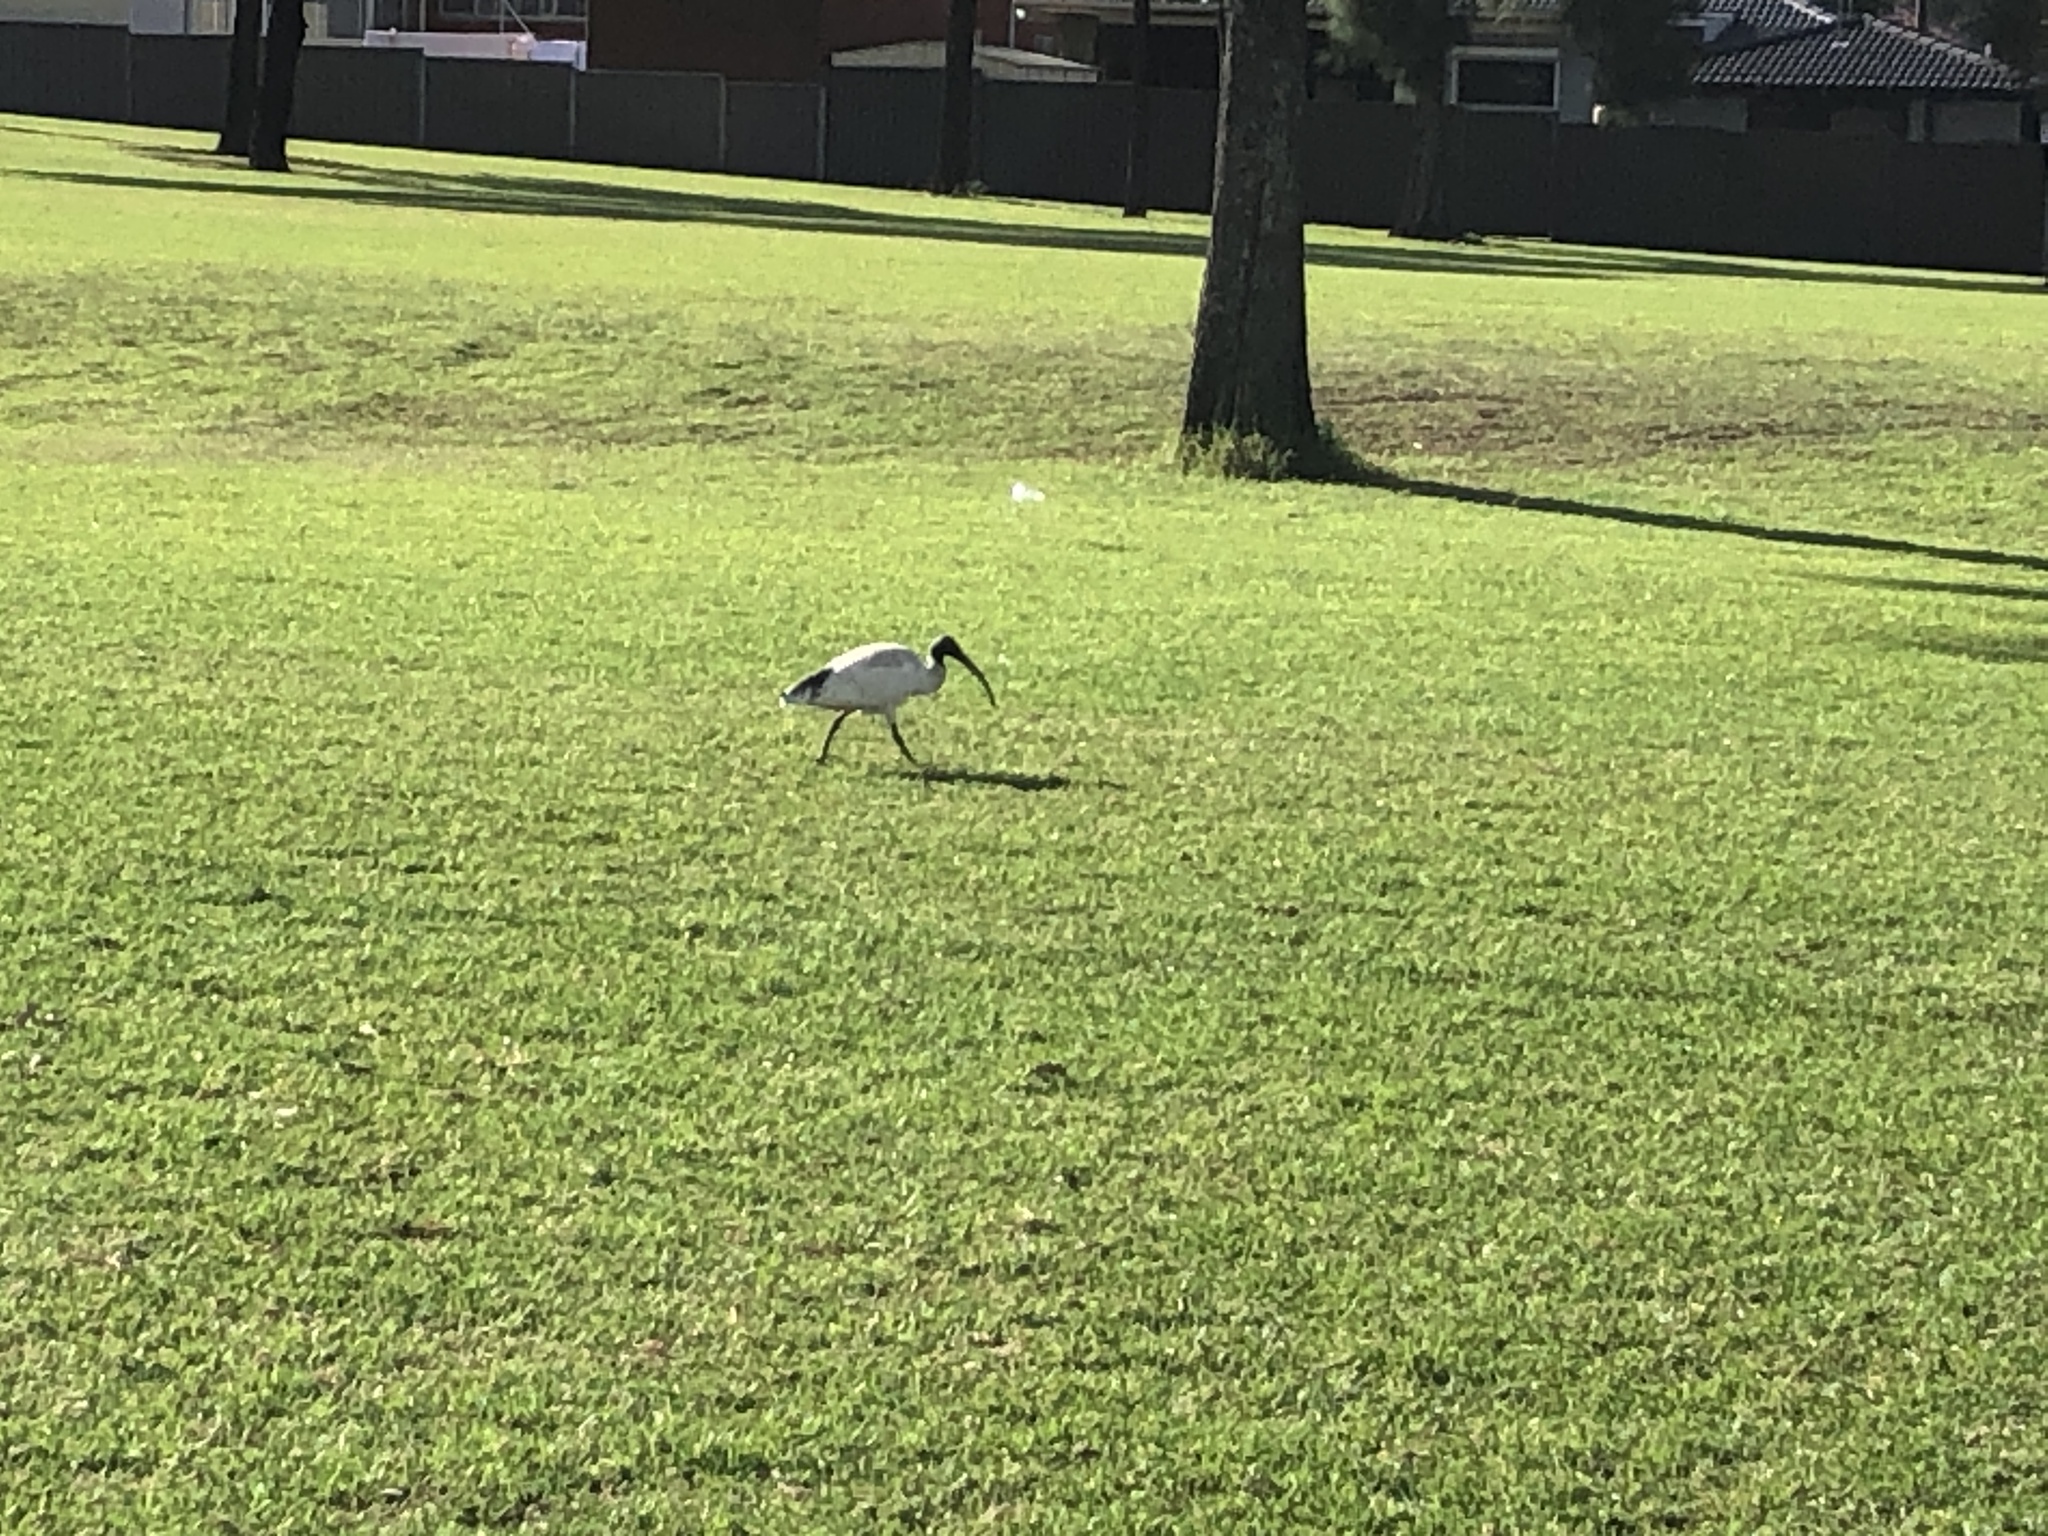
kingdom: Animalia
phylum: Chordata
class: Aves
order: Pelecaniformes
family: Threskiornithidae
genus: Threskiornis
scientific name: Threskiornis molucca
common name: Australian white ibis
